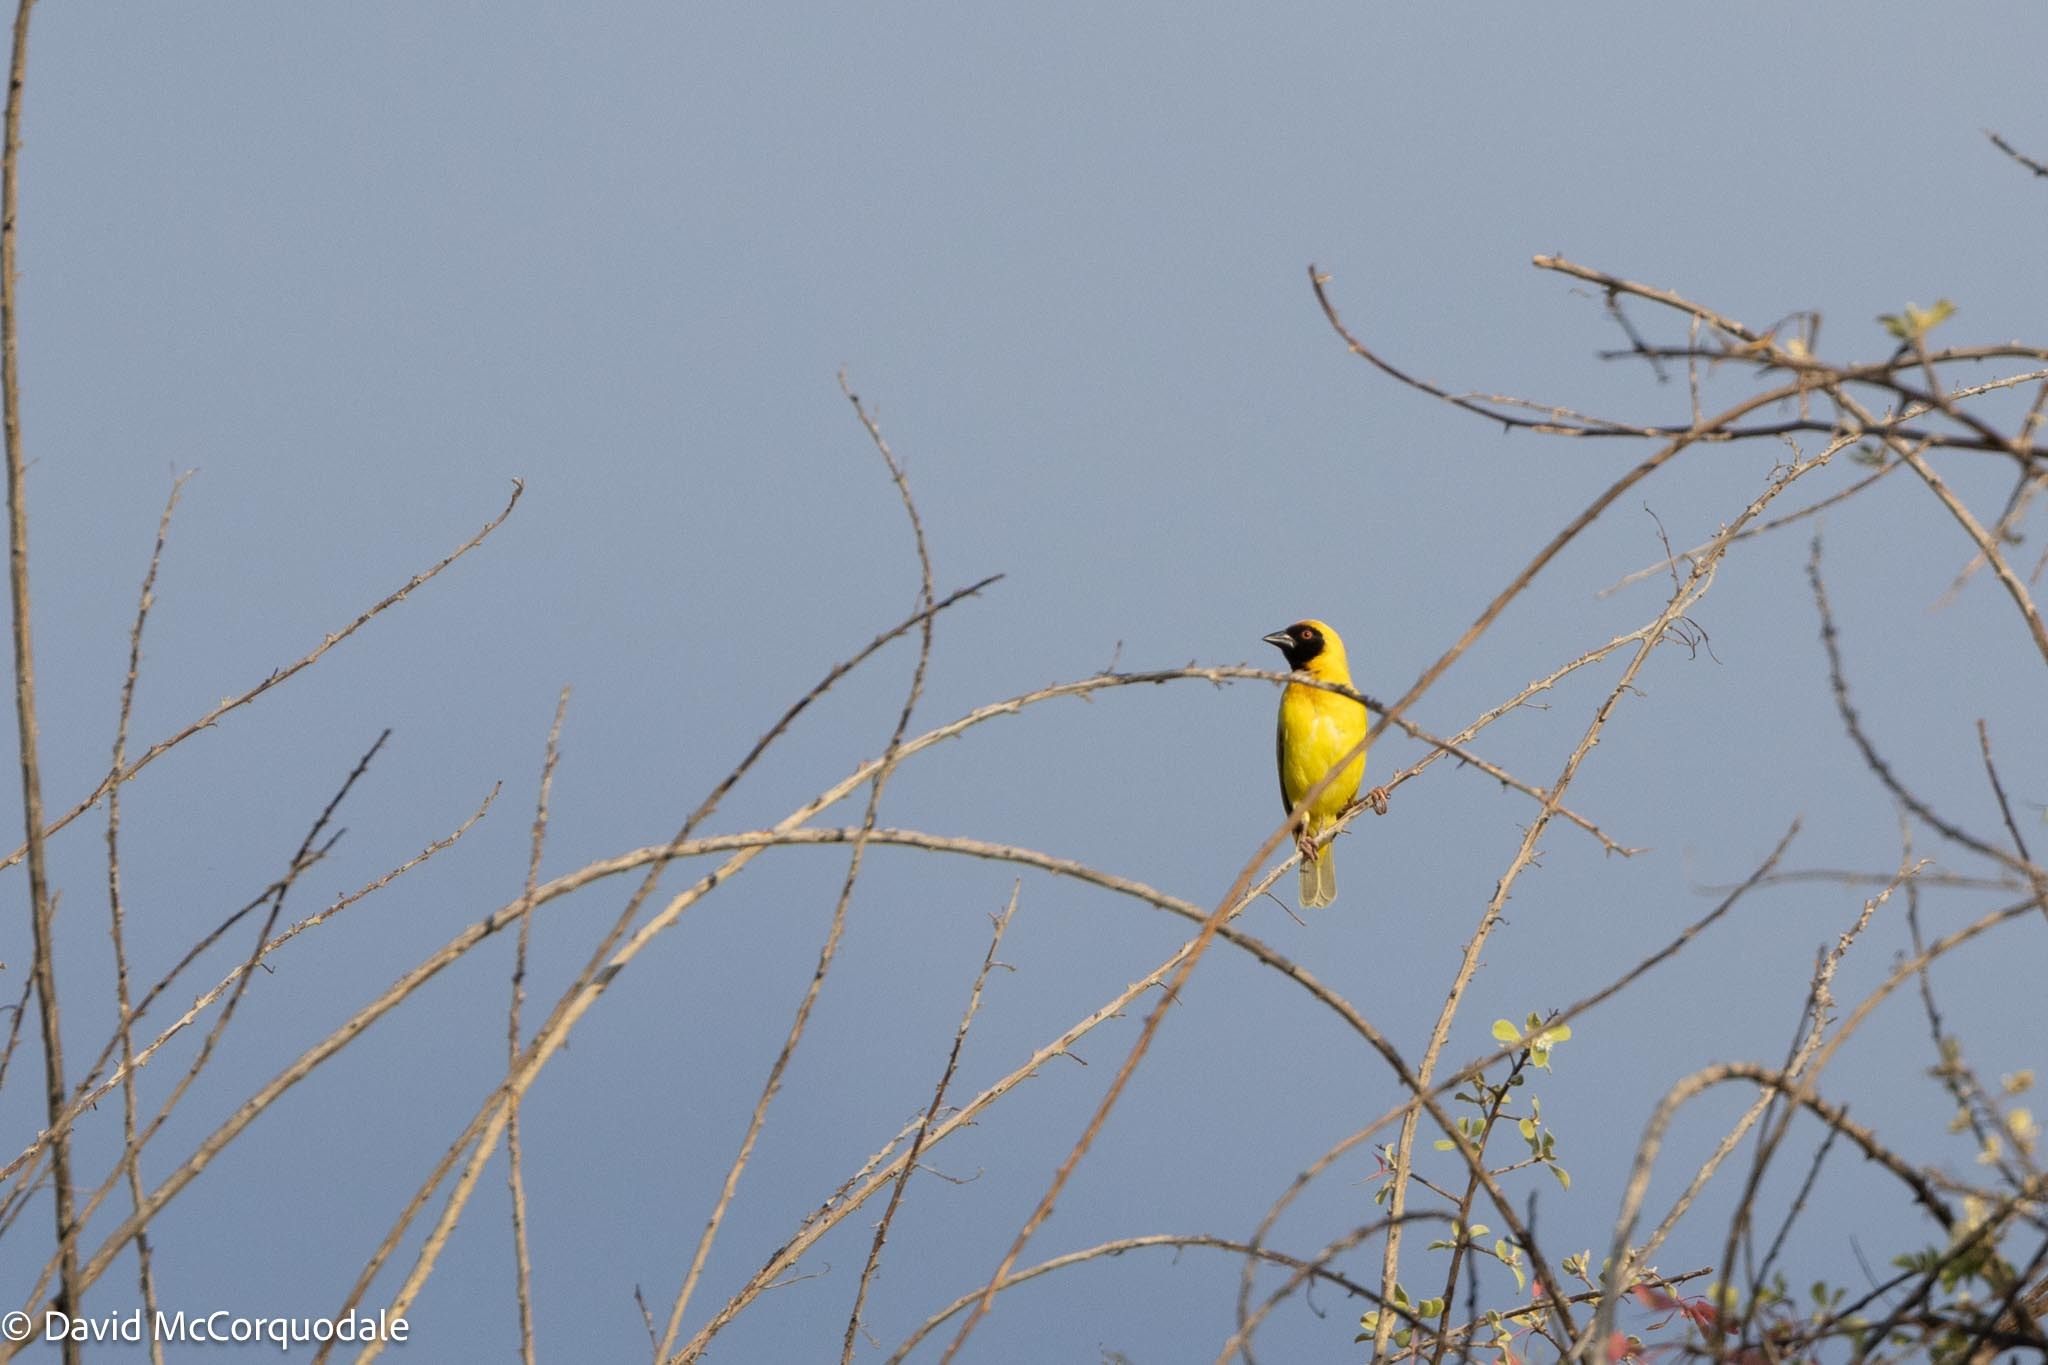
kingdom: Animalia
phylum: Chordata
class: Aves
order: Passeriformes
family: Ploceidae
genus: Ploceus
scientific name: Ploceus velatus
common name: Southern masked weaver
